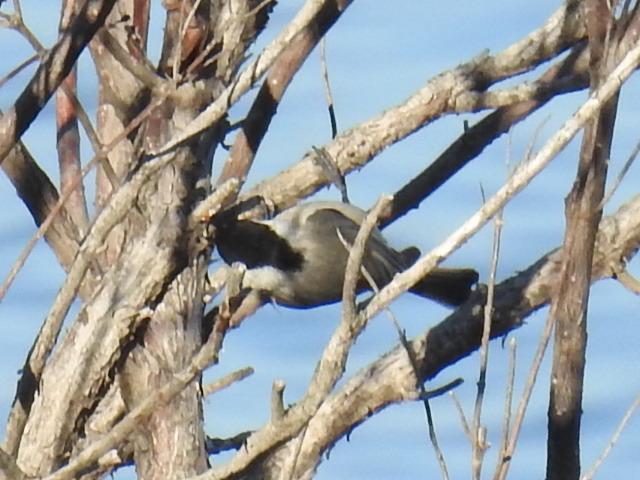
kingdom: Animalia
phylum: Chordata
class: Aves
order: Passeriformes
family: Paridae
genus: Poecile
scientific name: Poecile carolinensis
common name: Carolina chickadee
